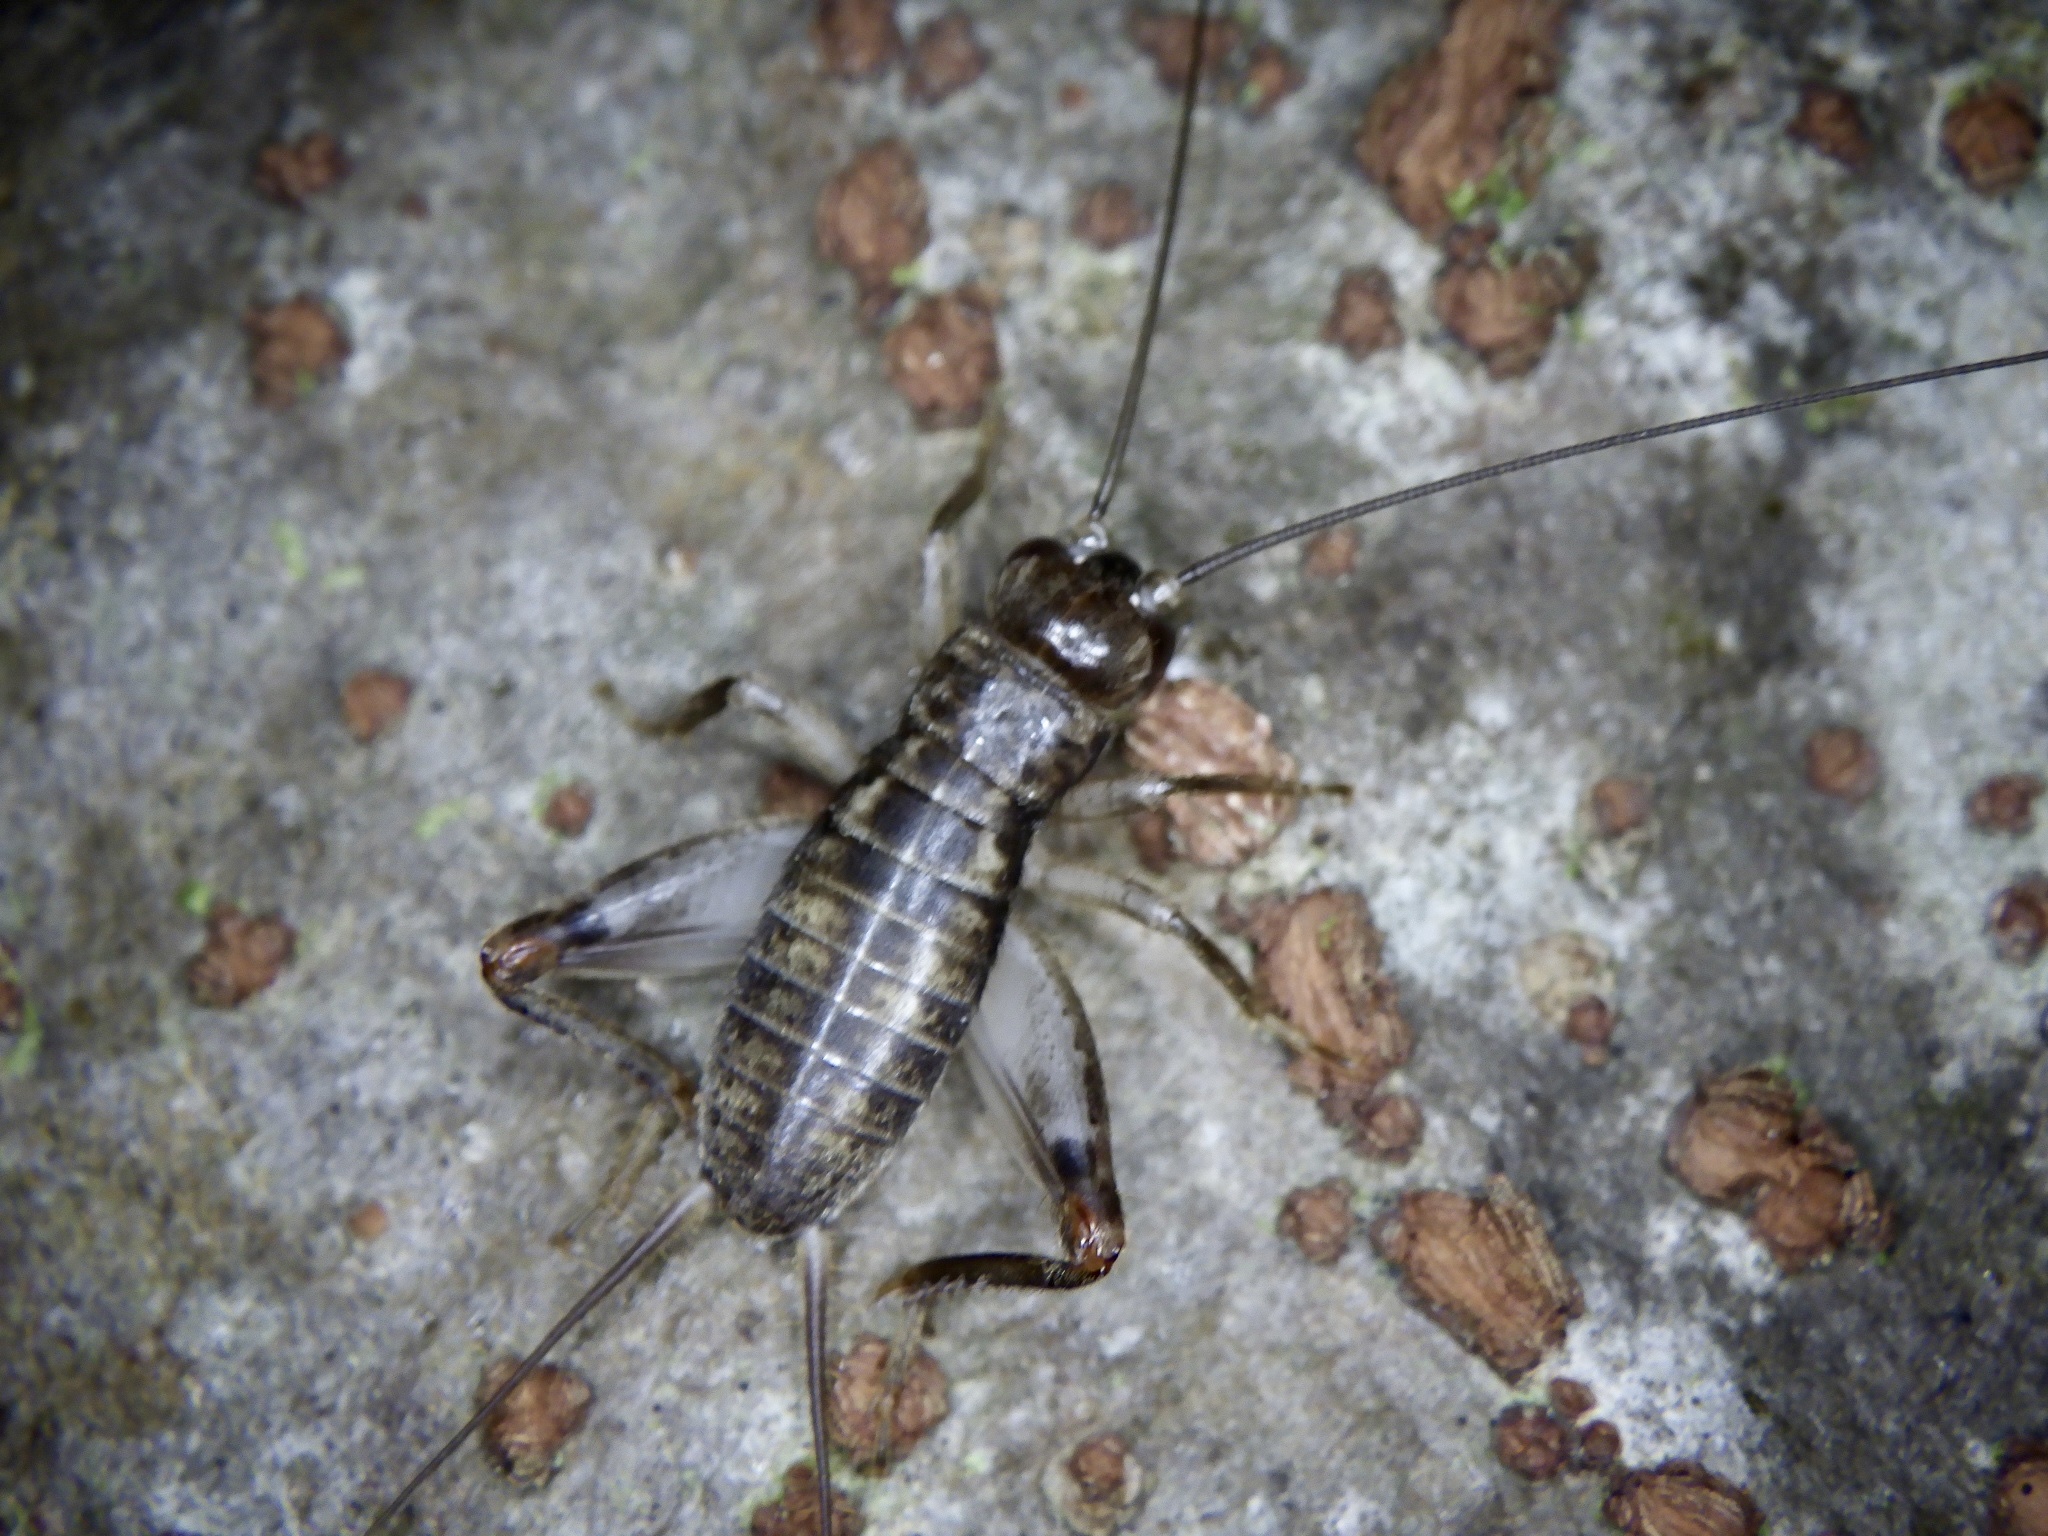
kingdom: Animalia
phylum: Arthropoda
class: Insecta
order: Orthoptera
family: Gryllidae
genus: Duolandrevus
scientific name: Duolandrevus ivani
